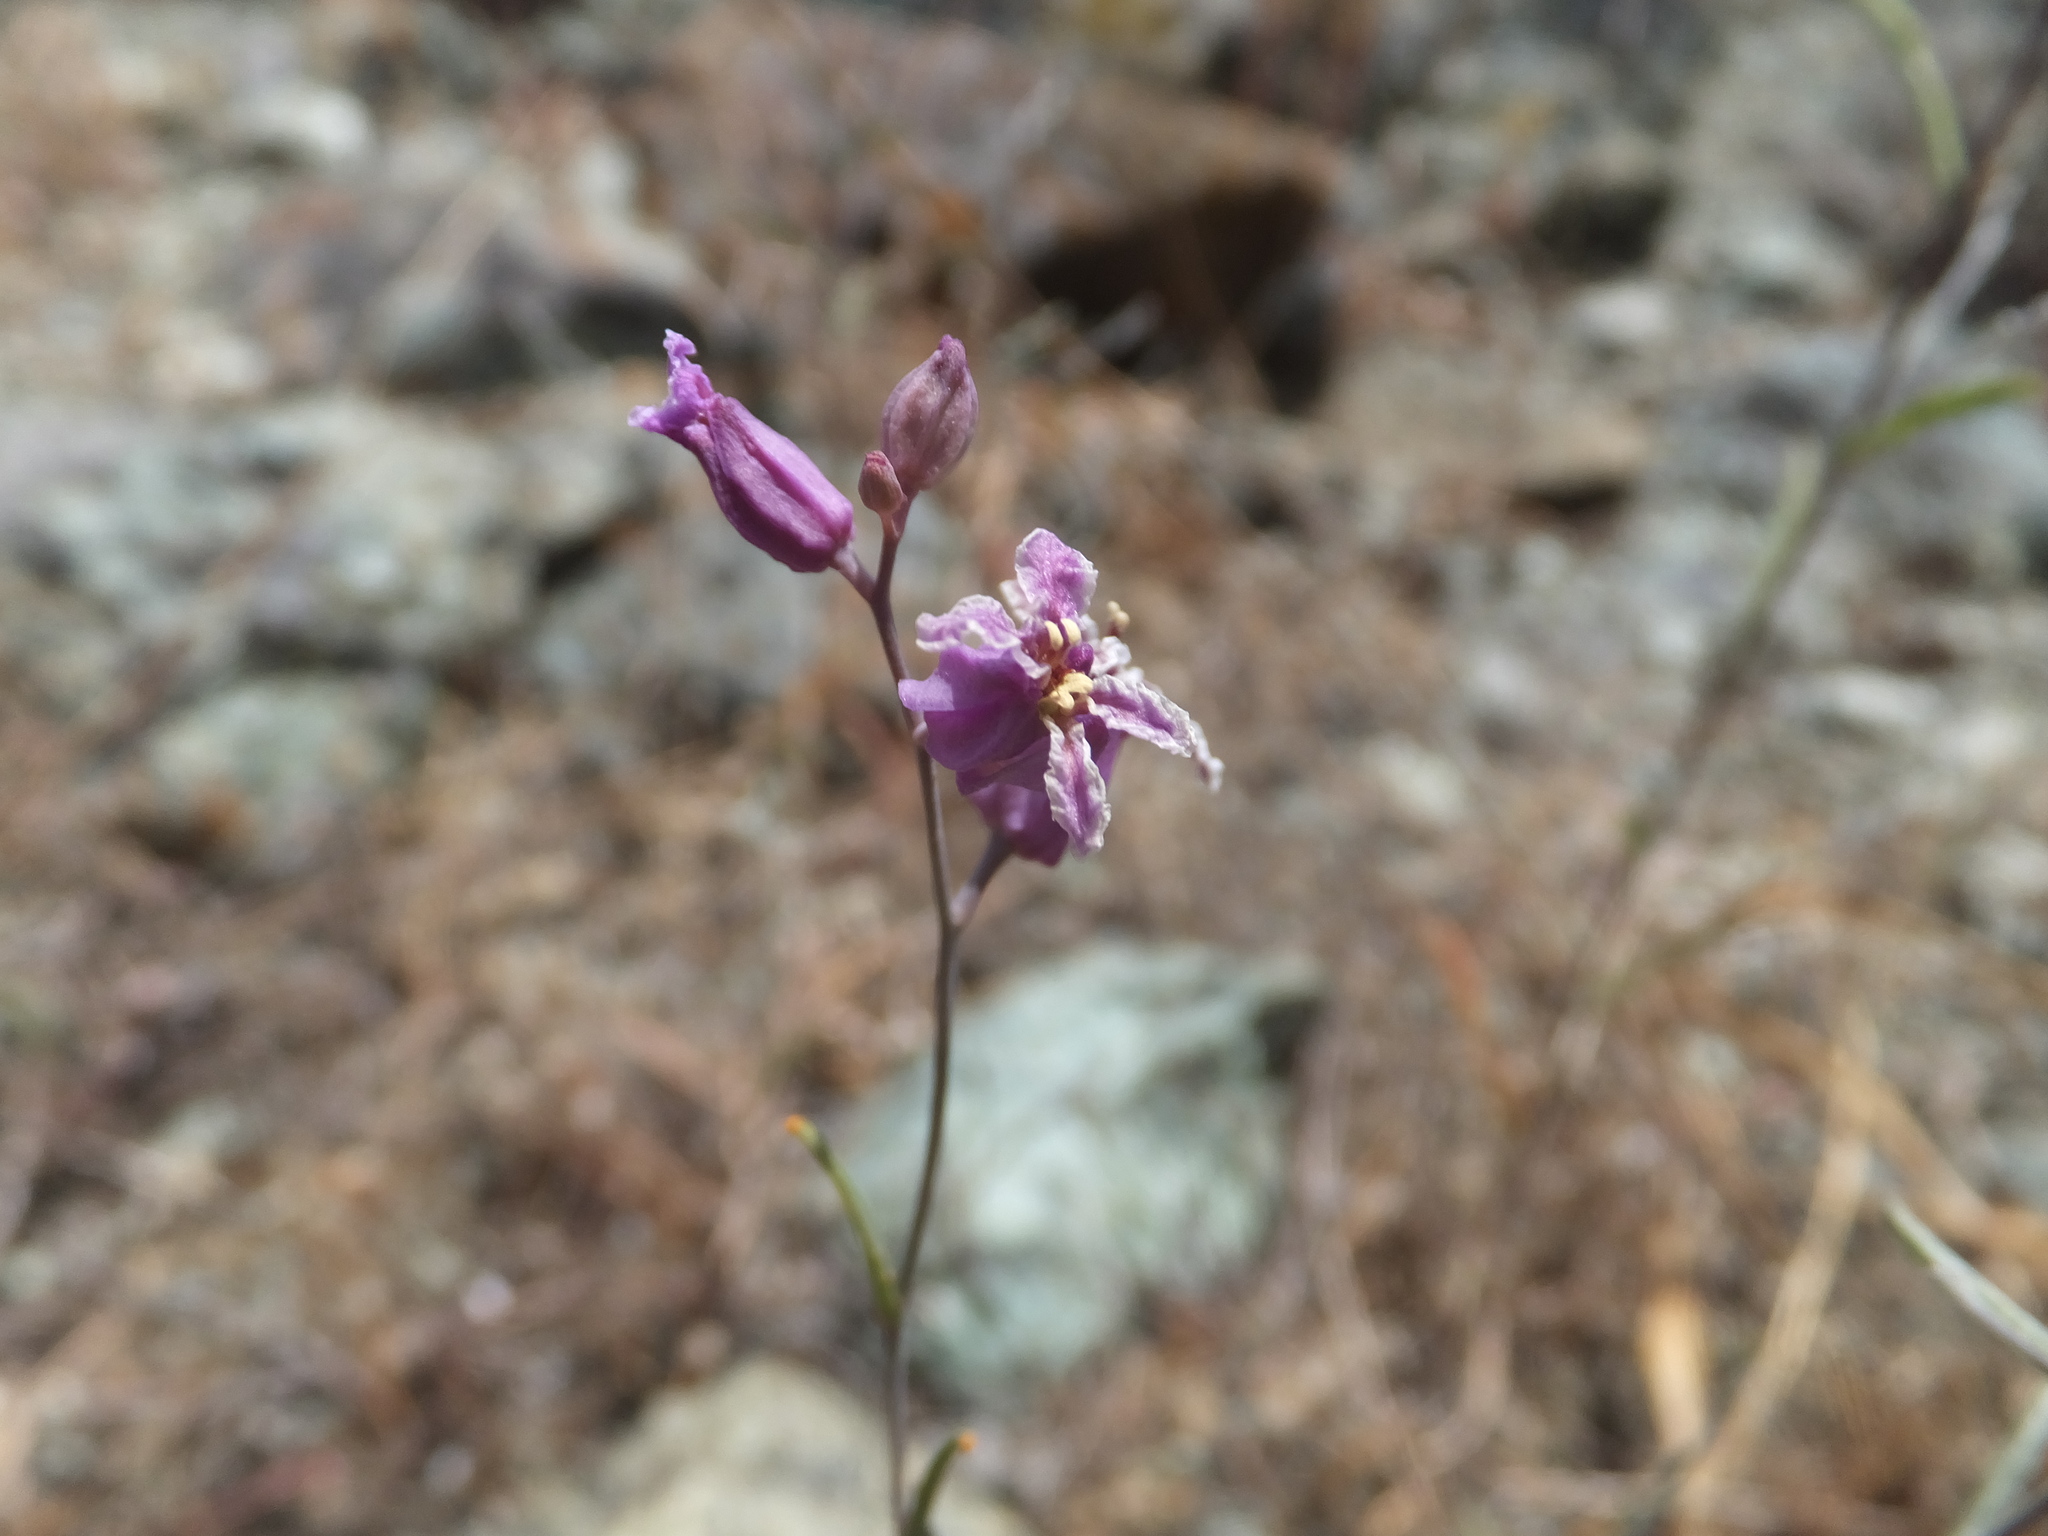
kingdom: Plantae
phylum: Tracheophyta
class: Magnoliopsida
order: Brassicales
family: Brassicaceae
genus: Streptanthus
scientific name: Streptanthus glandulosus
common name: Jewel-flower
